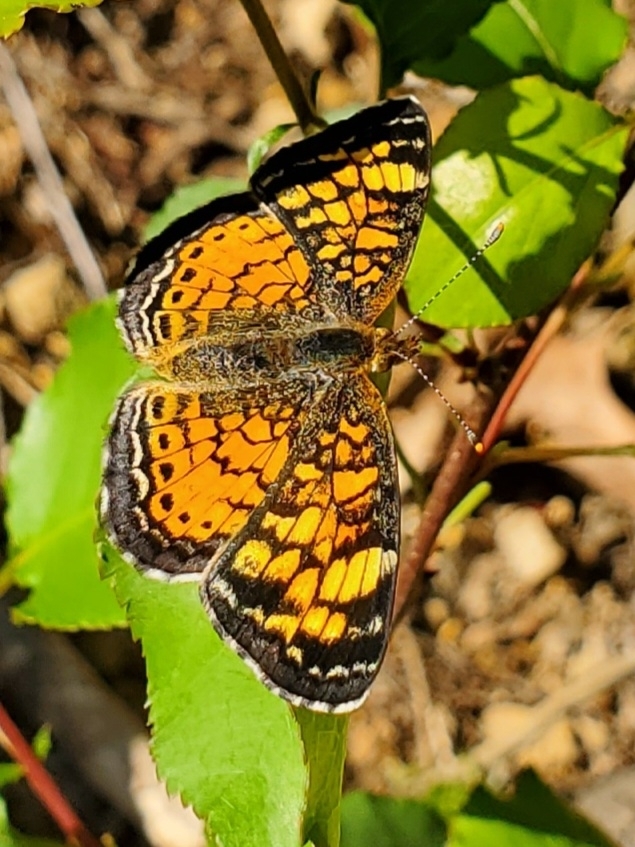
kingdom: Animalia
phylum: Arthropoda
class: Insecta
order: Lepidoptera
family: Nymphalidae
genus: Phyciodes
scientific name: Phyciodes tharos
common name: Pearl crescent
